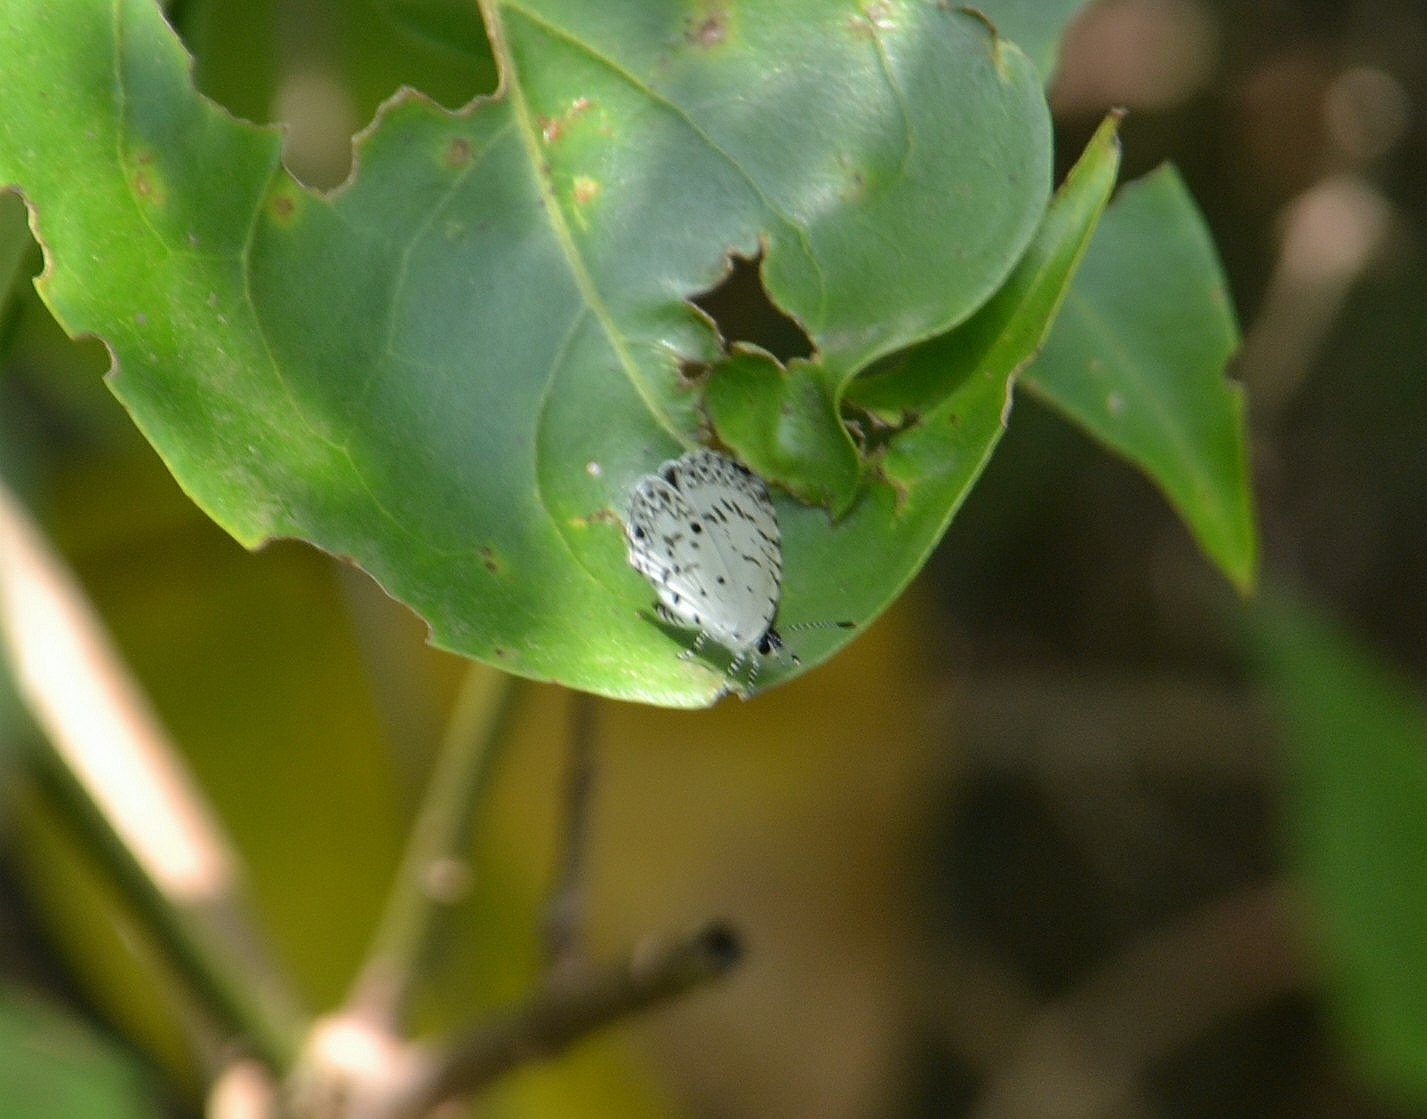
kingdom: Animalia
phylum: Arthropoda
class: Insecta
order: Lepidoptera
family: Lycaenidae
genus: Megisba
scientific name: Megisba malaya
